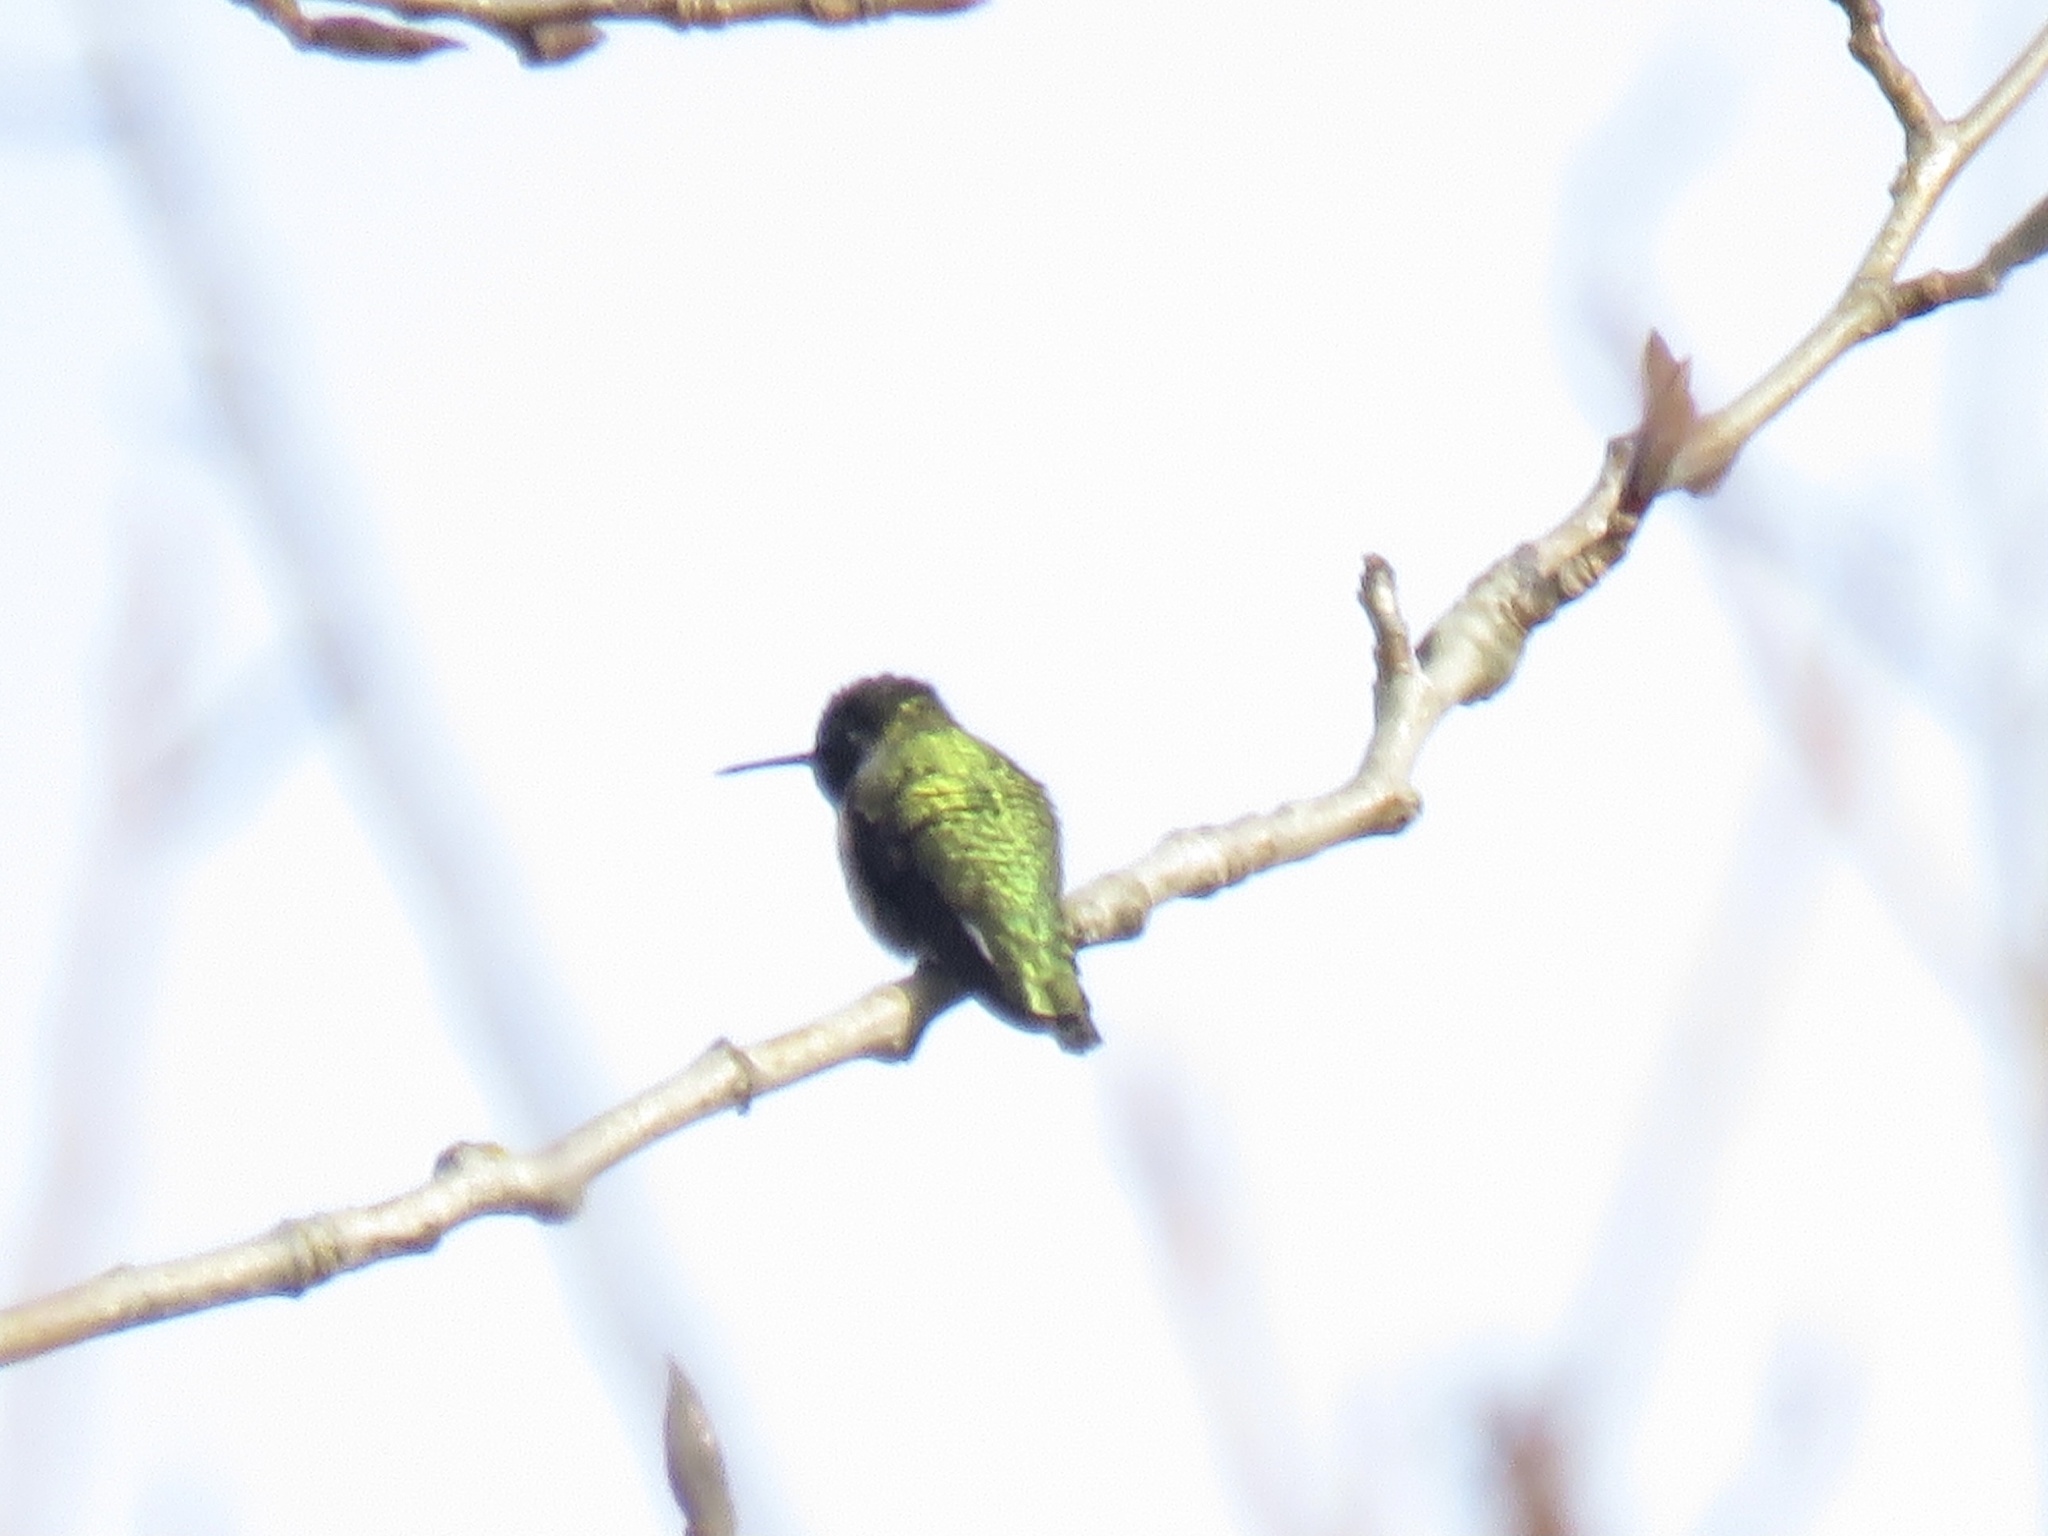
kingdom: Animalia
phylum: Chordata
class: Aves
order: Apodiformes
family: Trochilidae
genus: Calypte
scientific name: Calypte anna
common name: Anna's hummingbird
